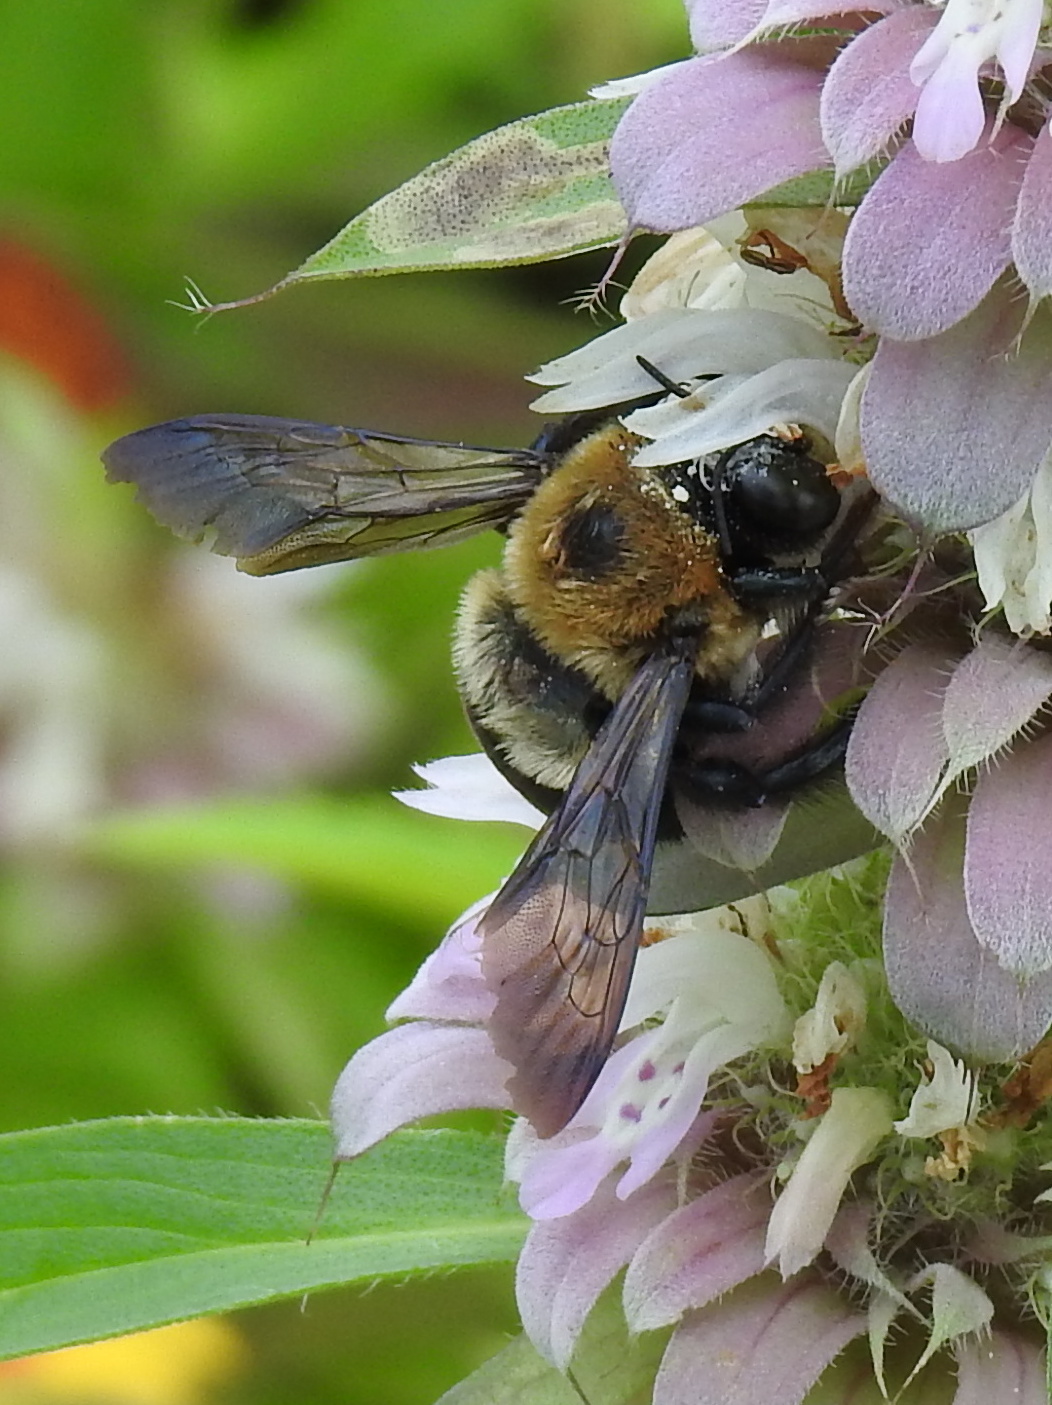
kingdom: Animalia
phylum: Arthropoda
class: Insecta
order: Hymenoptera
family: Apidae
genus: Xylocopa
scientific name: Xylocopa virginica
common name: Carpenter bee
